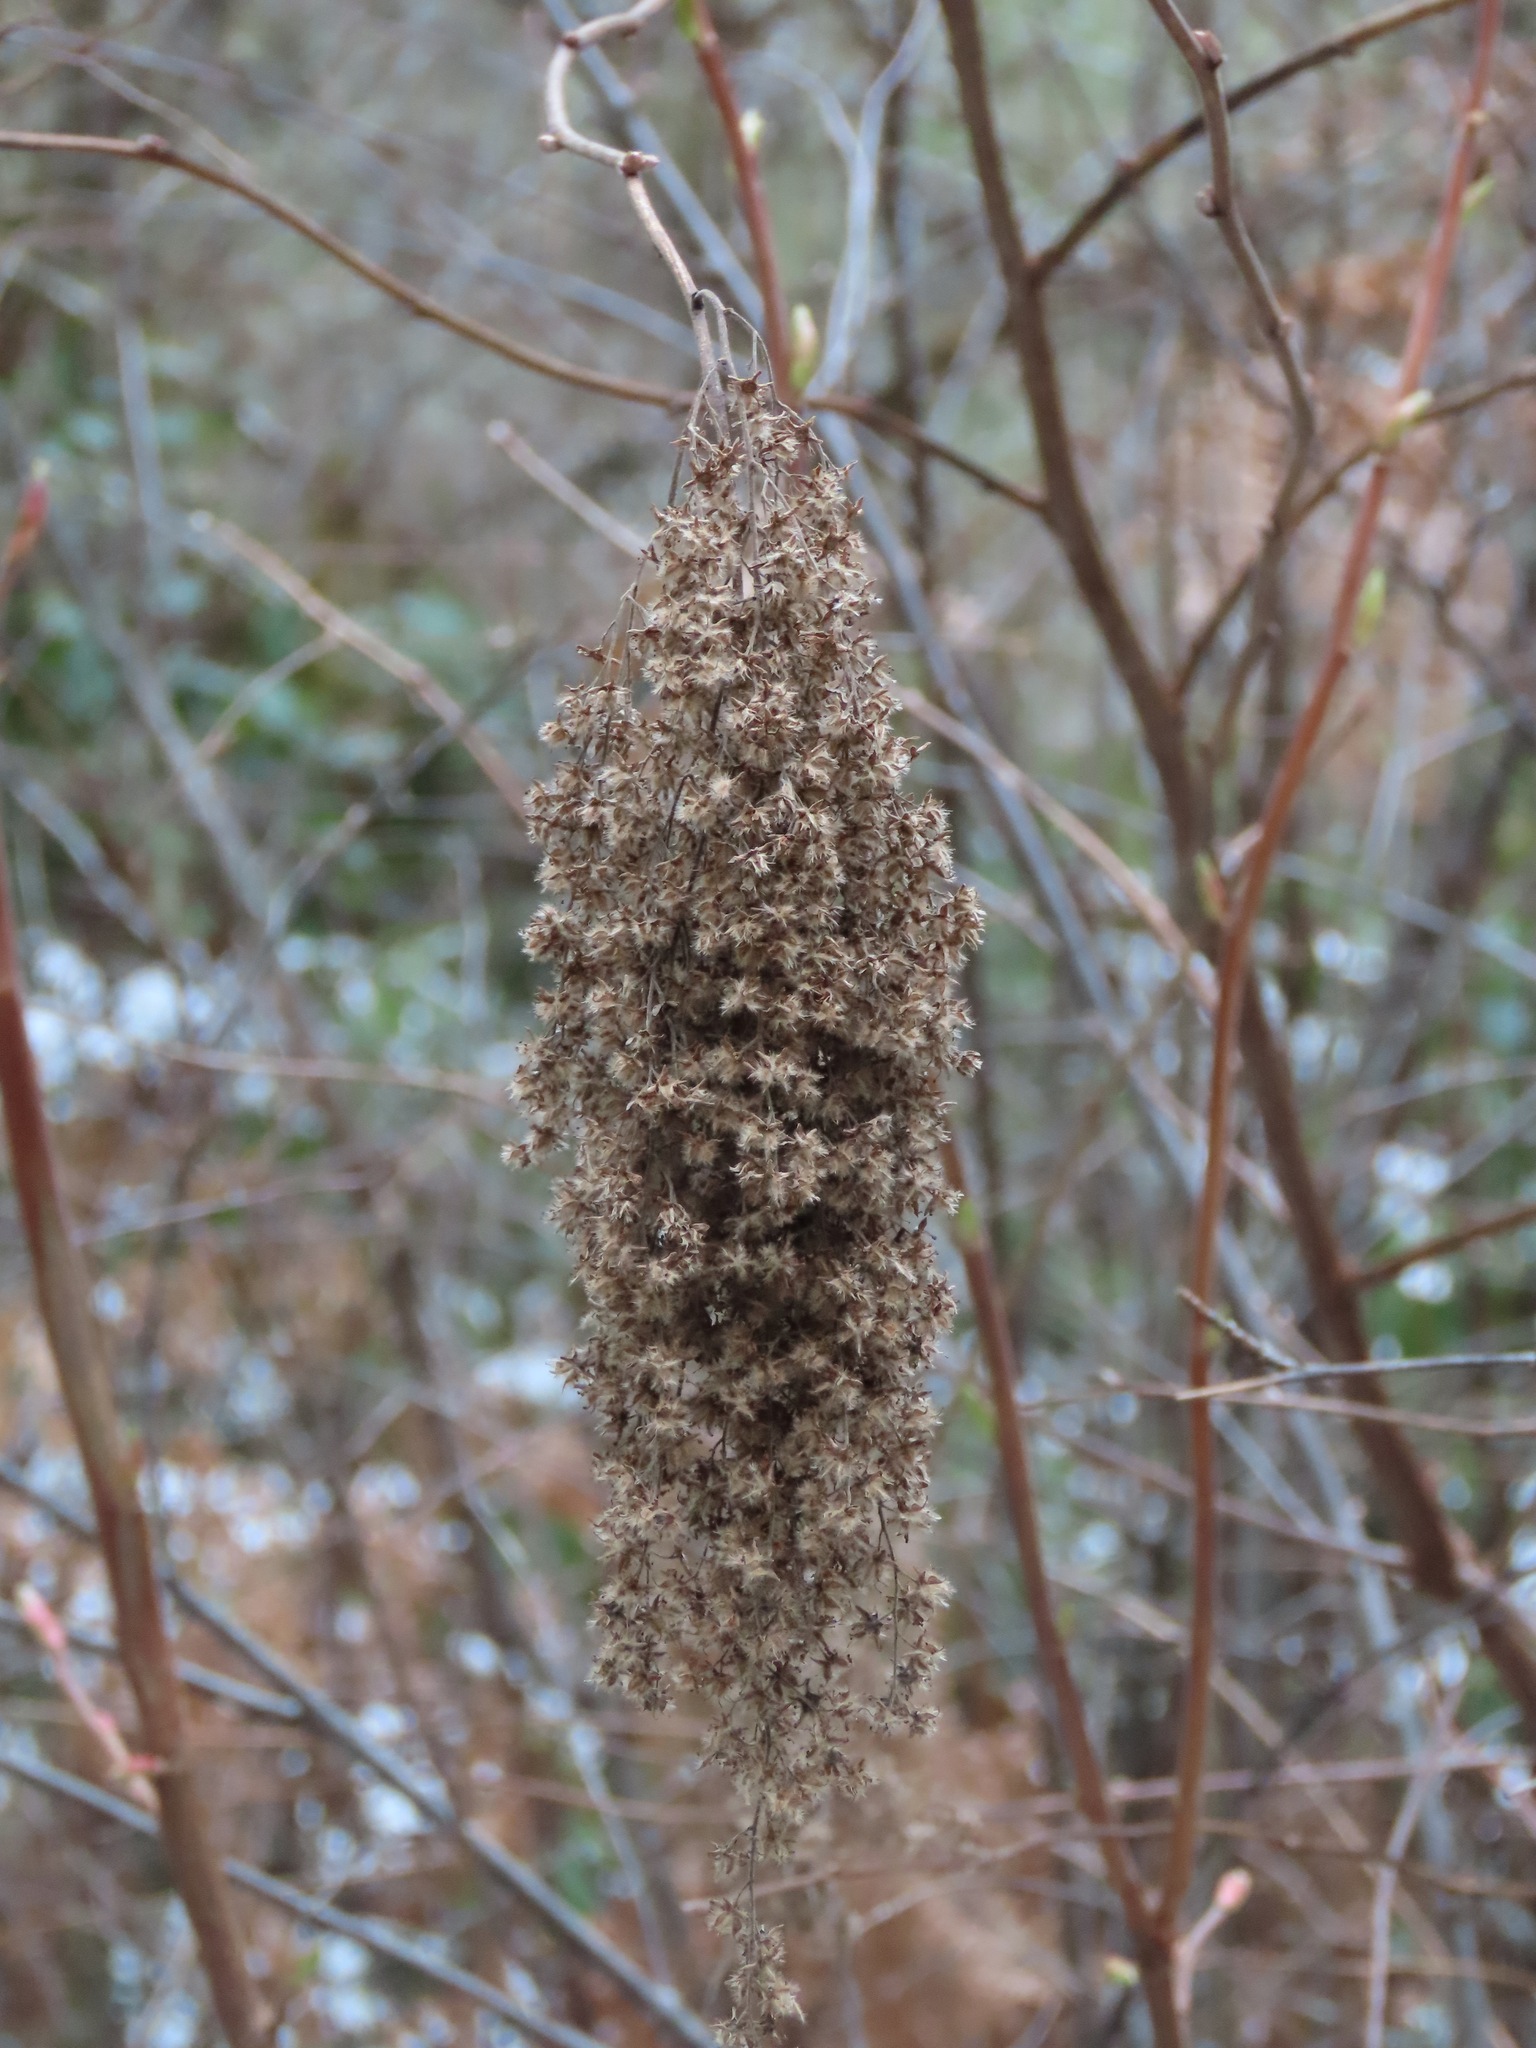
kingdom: Plantae
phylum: Tracheophyta
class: Magnoliopsida
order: Rosales
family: Rosaceae
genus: Holodiscus
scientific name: Holodiscus discolor
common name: Oceanspray
